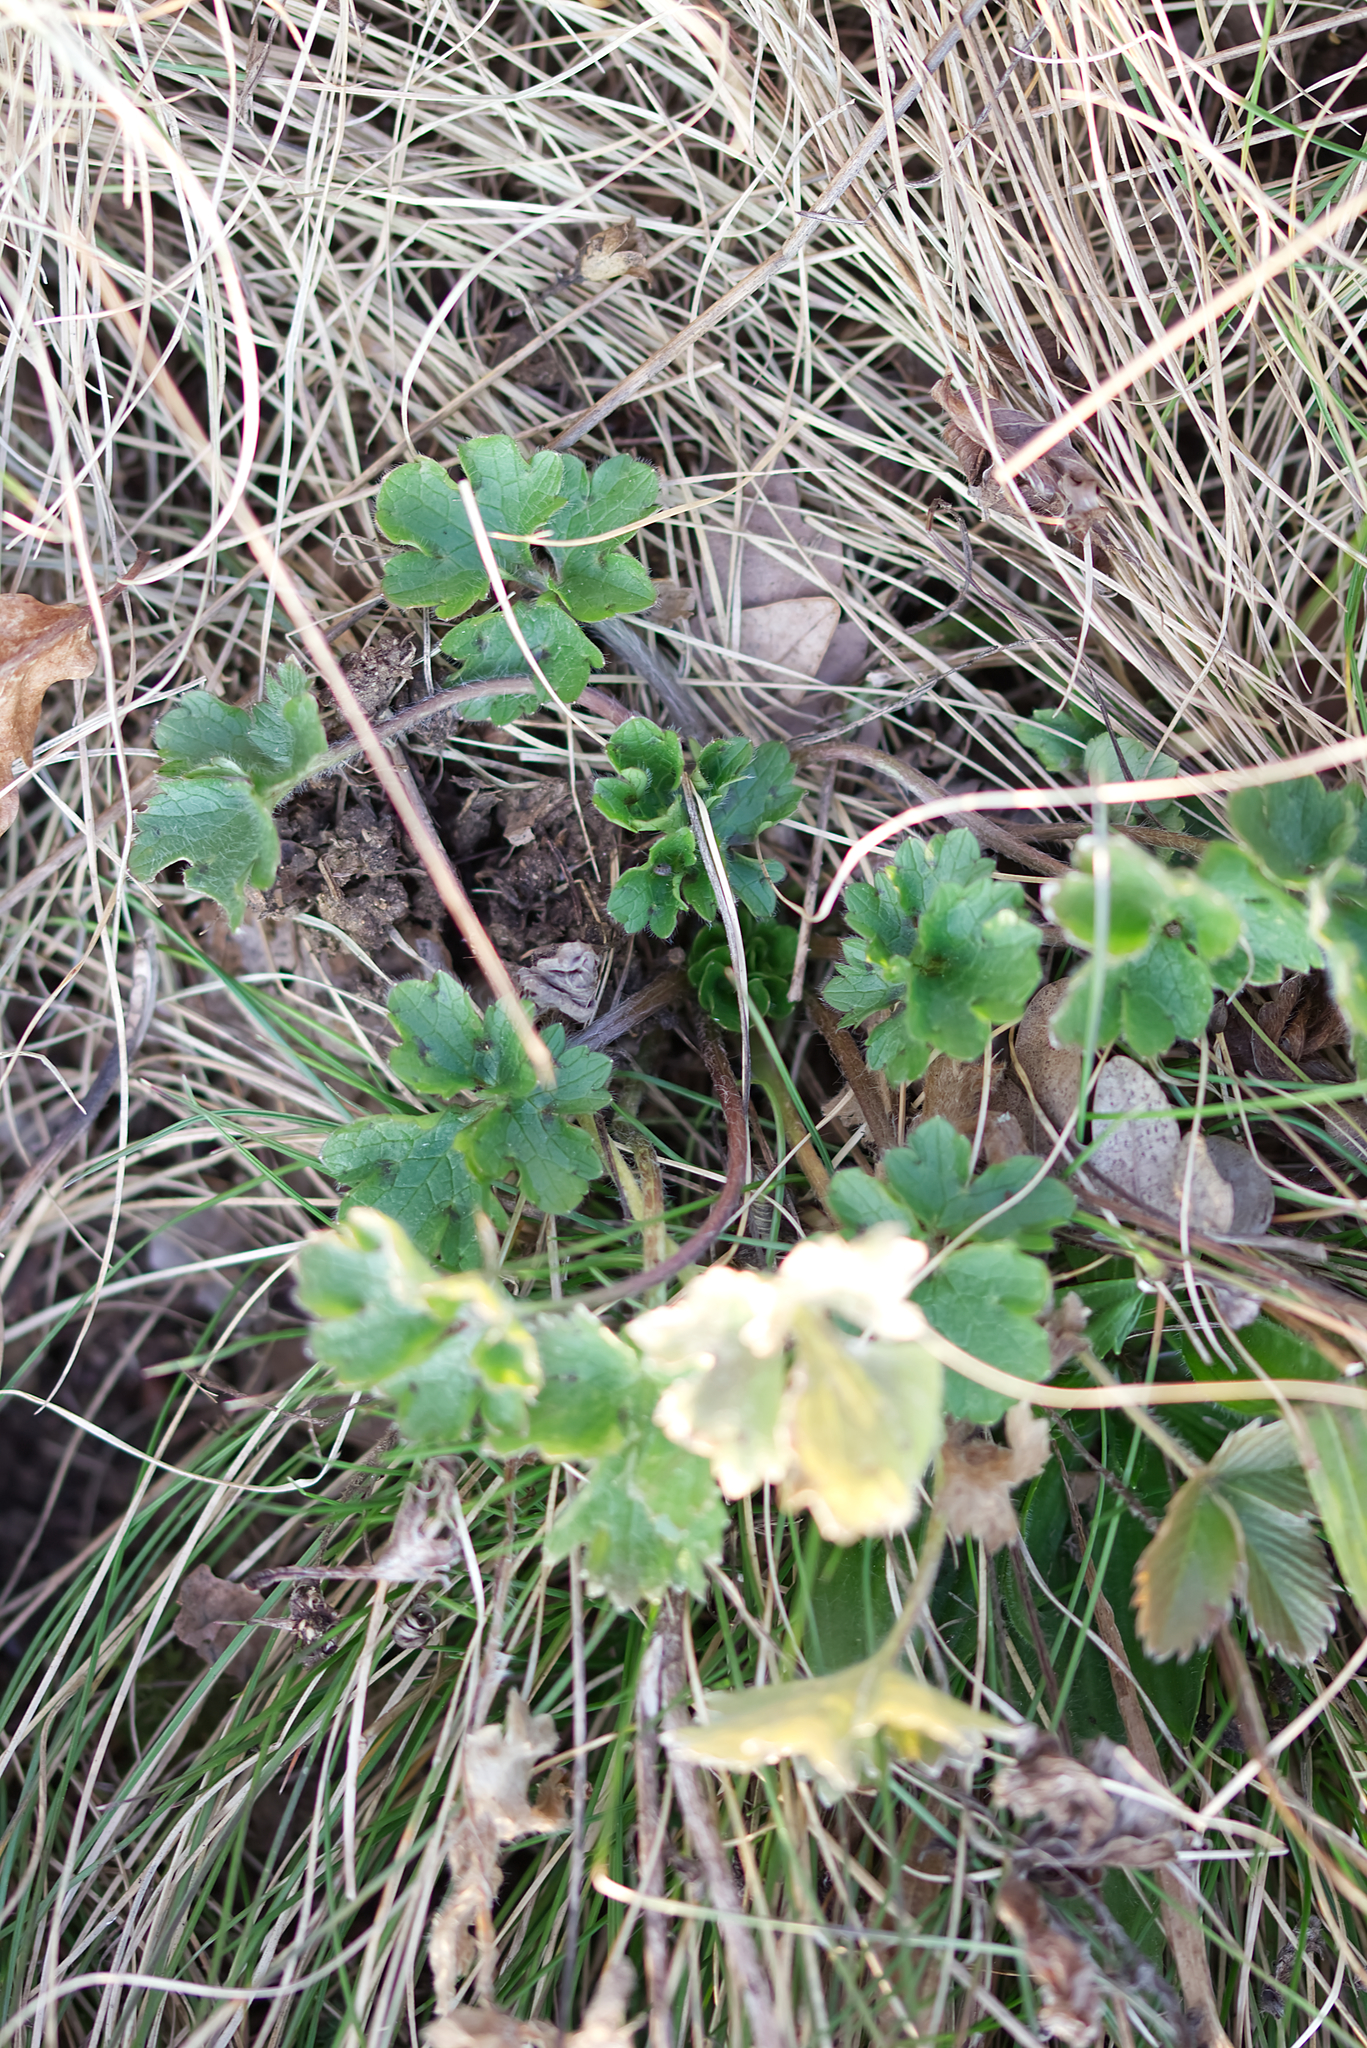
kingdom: Plantae
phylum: Tracheophyta
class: Magnoliopsida
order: Ranunculales
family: Ranunculaceae
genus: Ranunculus
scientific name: Ranunculus bulbosus
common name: Bulbous buttercup
